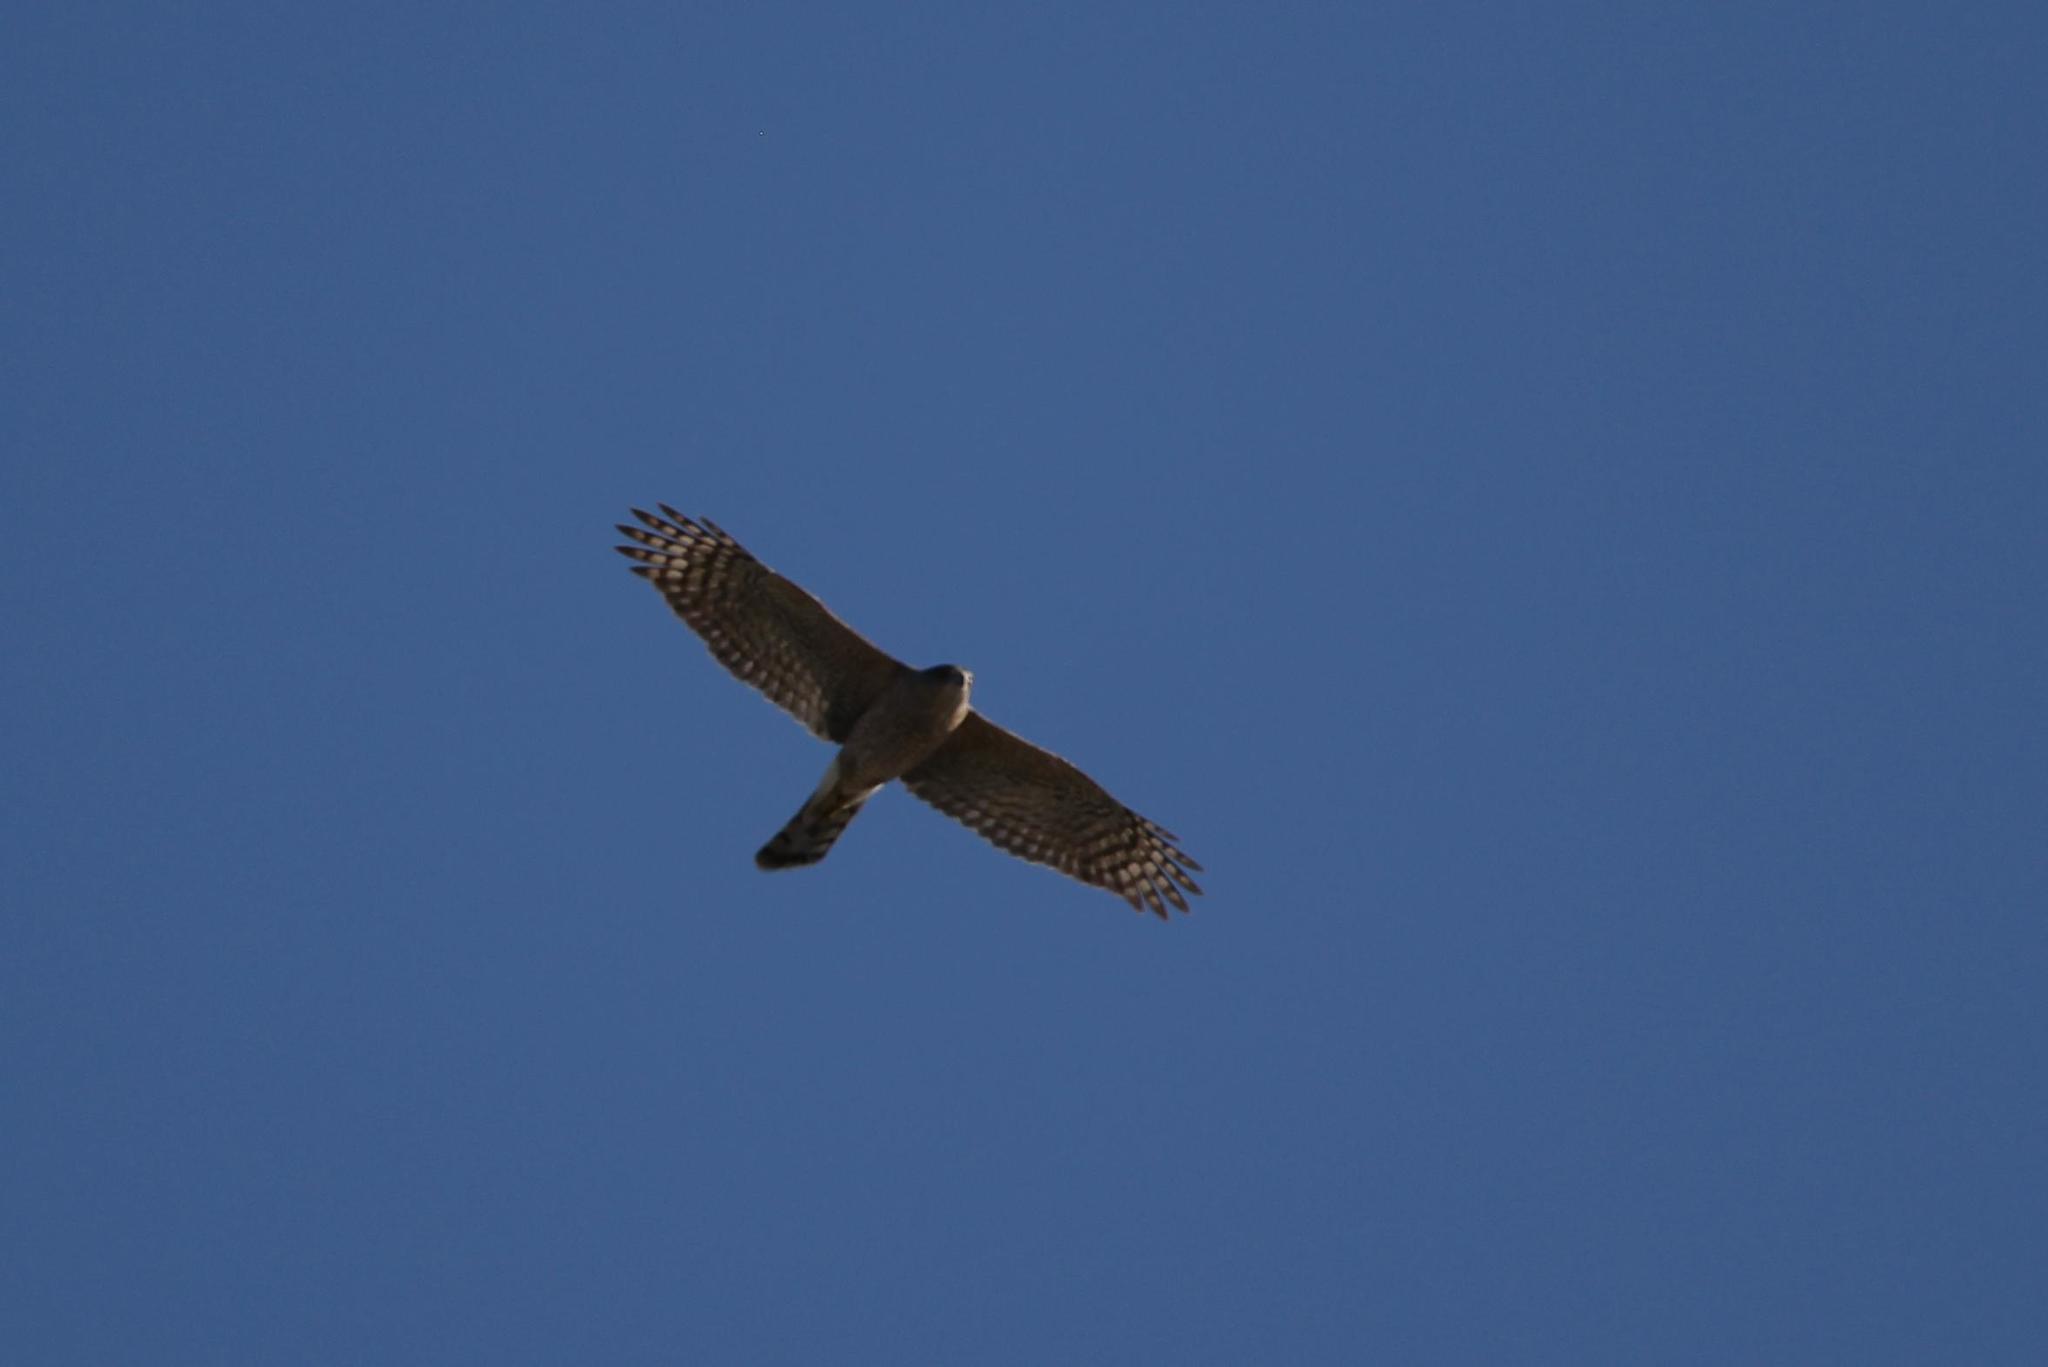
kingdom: Animalia
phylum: Chordata
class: Aves
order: Accipitriformes
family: Accipitridae
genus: Accipiter
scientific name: Accipiter cooperii
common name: Cooper's hawk
